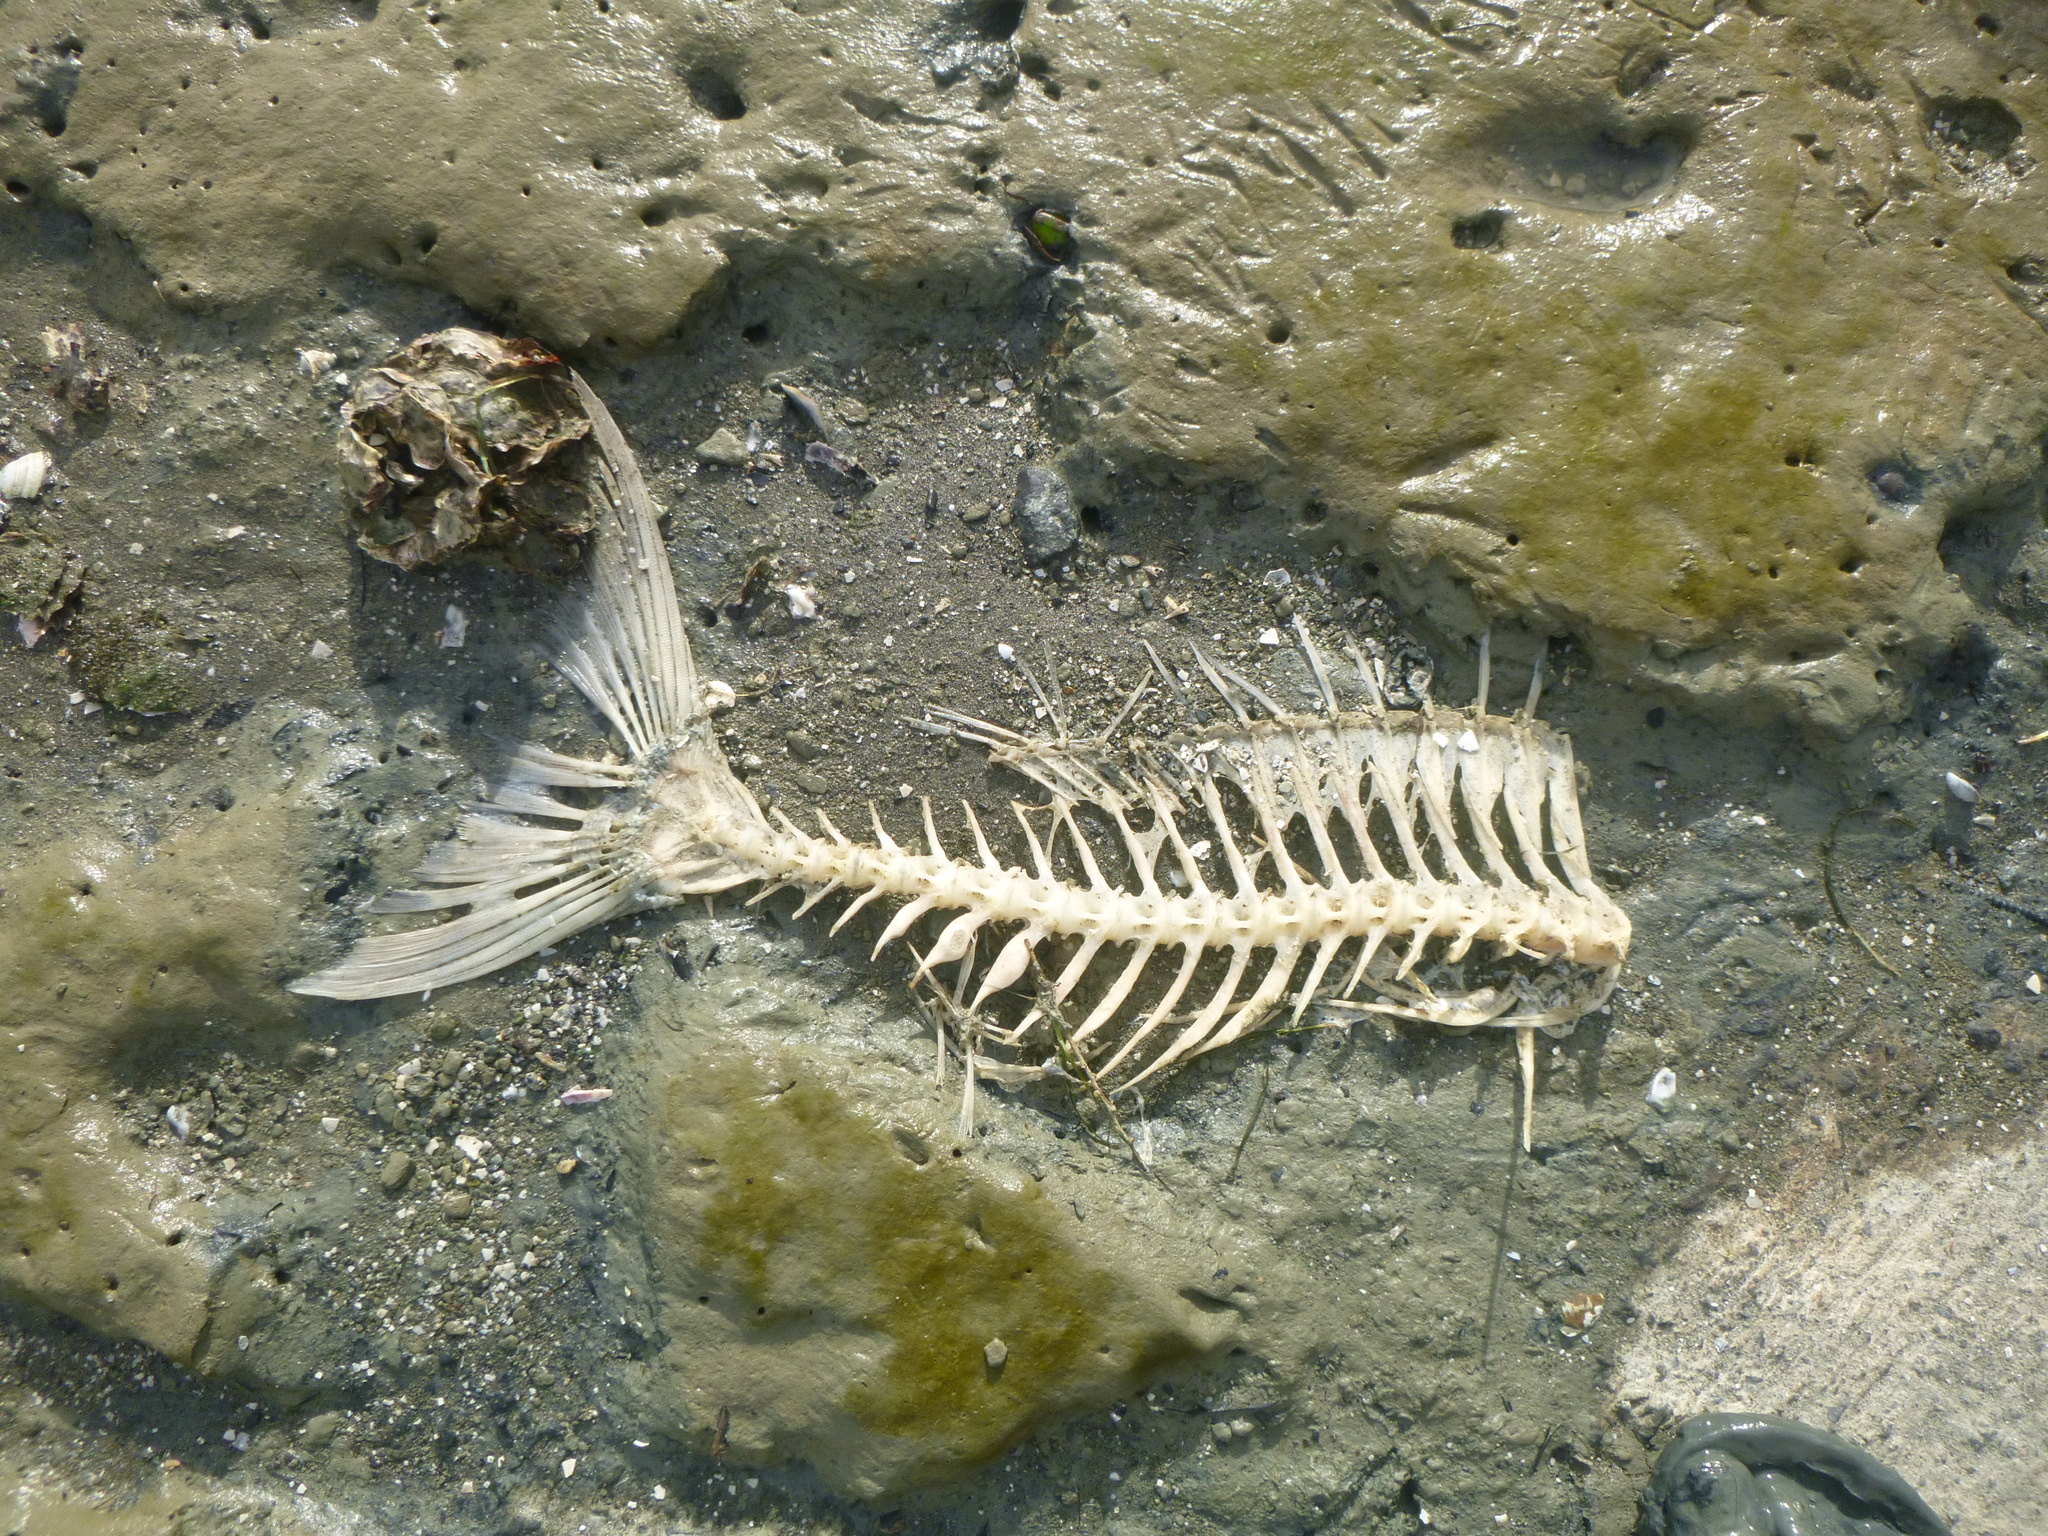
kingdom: Animalia
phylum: Chordata
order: Perciformes
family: Sparidae
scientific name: Sparidae
